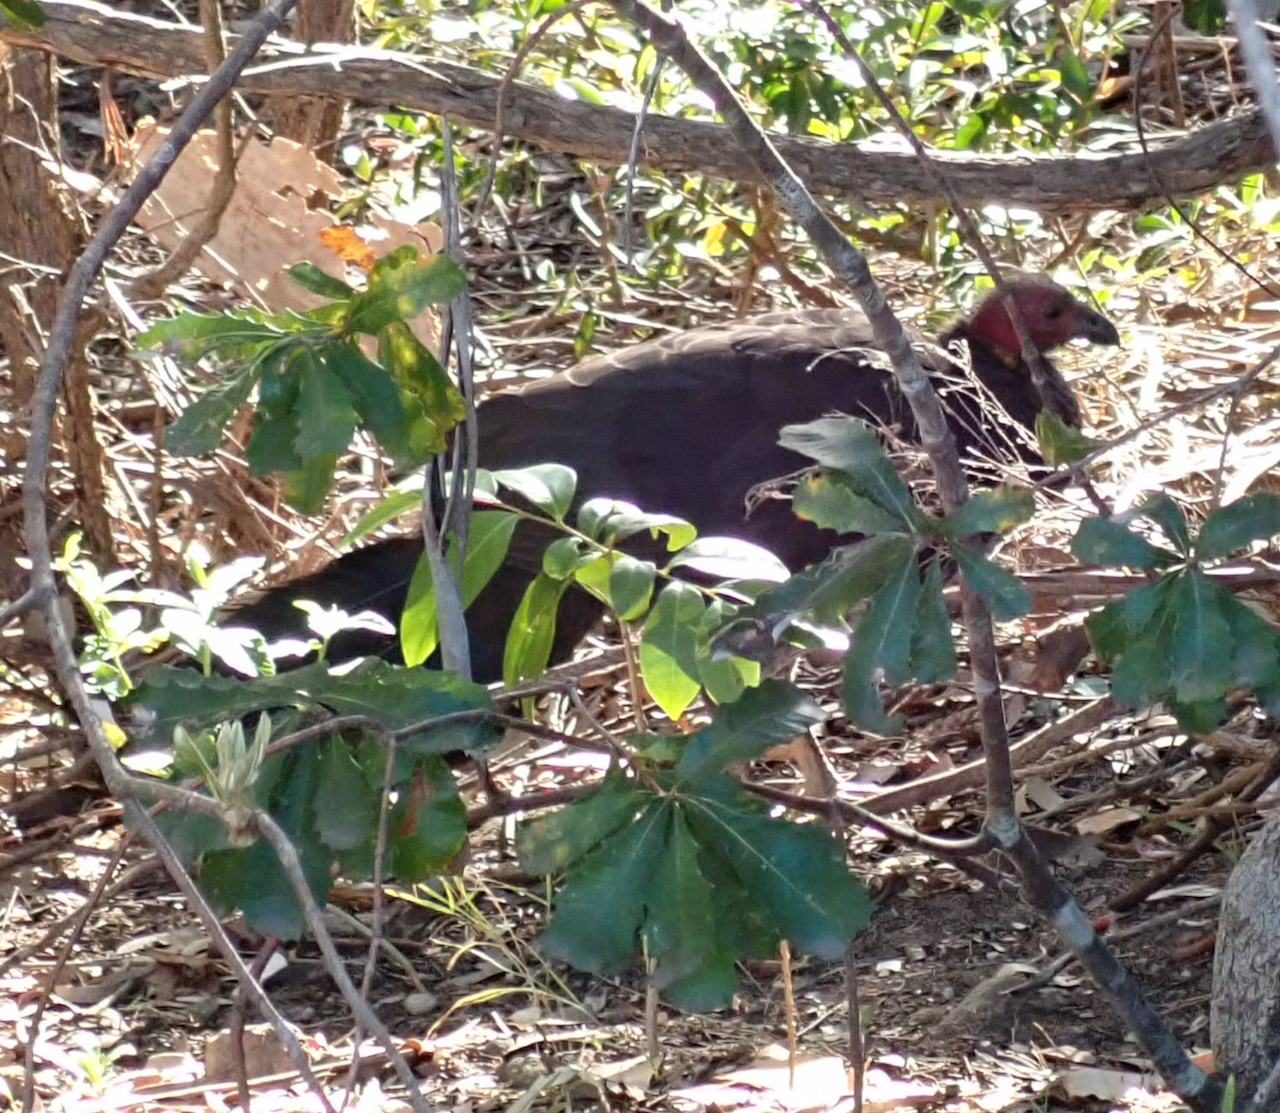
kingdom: Animalia
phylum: Chordata
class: Aves
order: Galliformes
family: Megapodiidae
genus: Alectura
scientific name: Alectura lathami
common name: Australian brushturkey
